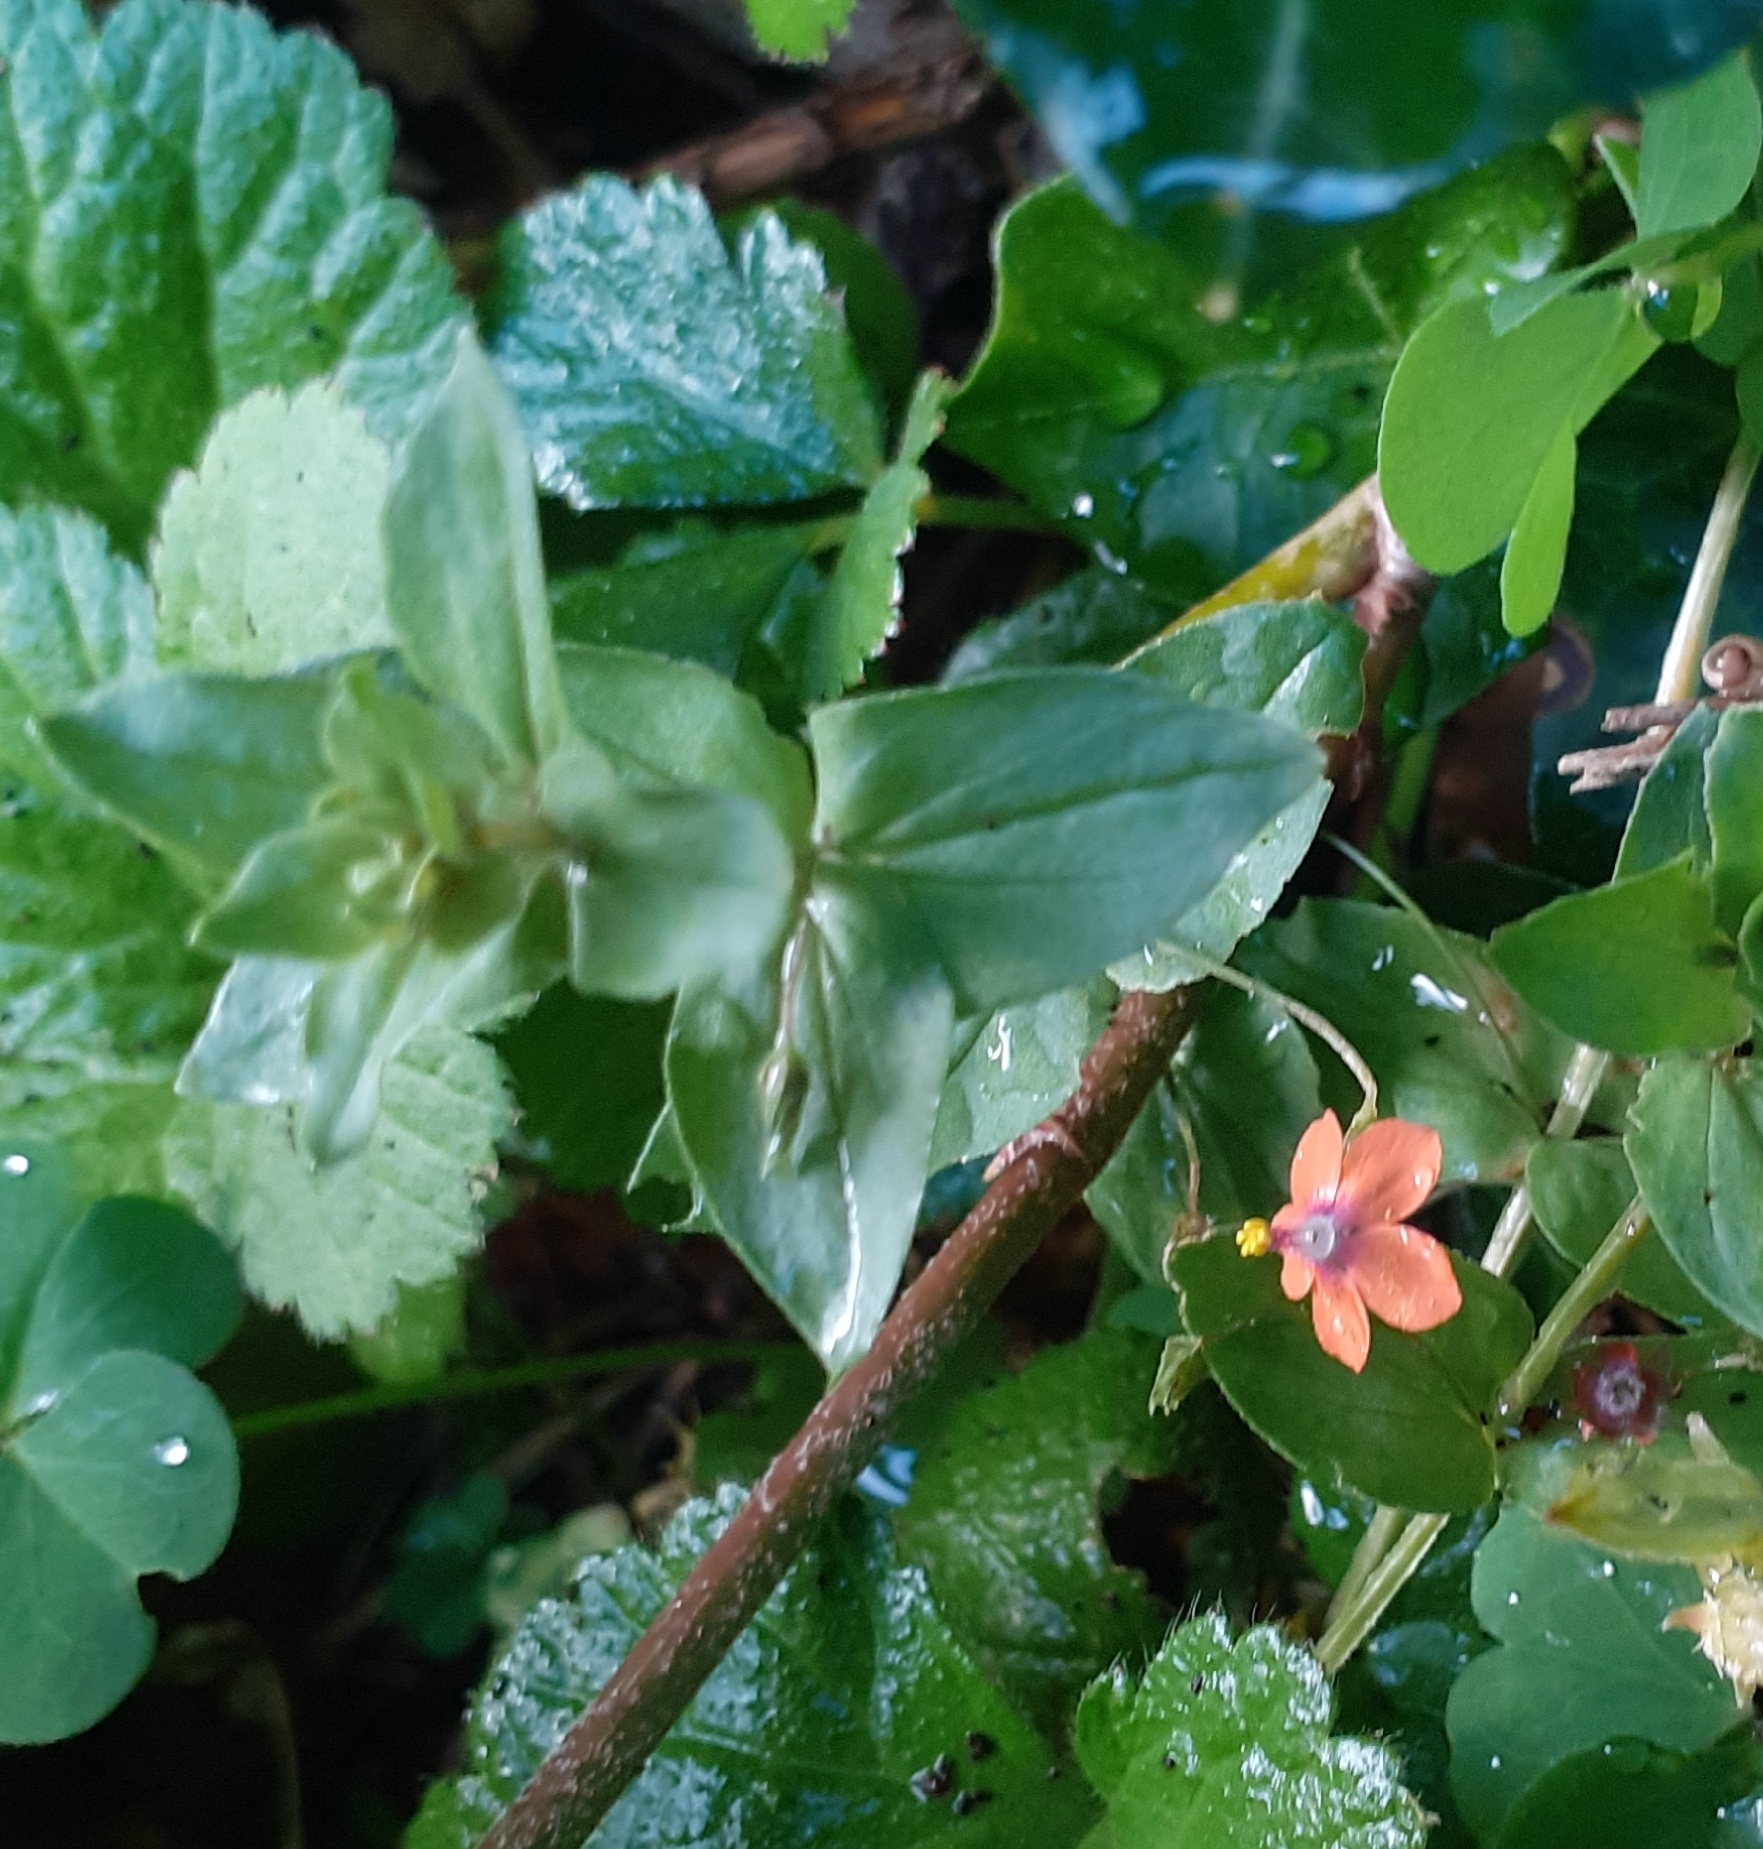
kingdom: Plantae
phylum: Tracheophyta
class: Magnoliopsida
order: Ericales
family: Primulaceae
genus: Lysimachia
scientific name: Lysimachia arvensis
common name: Scarlet pimpernel
